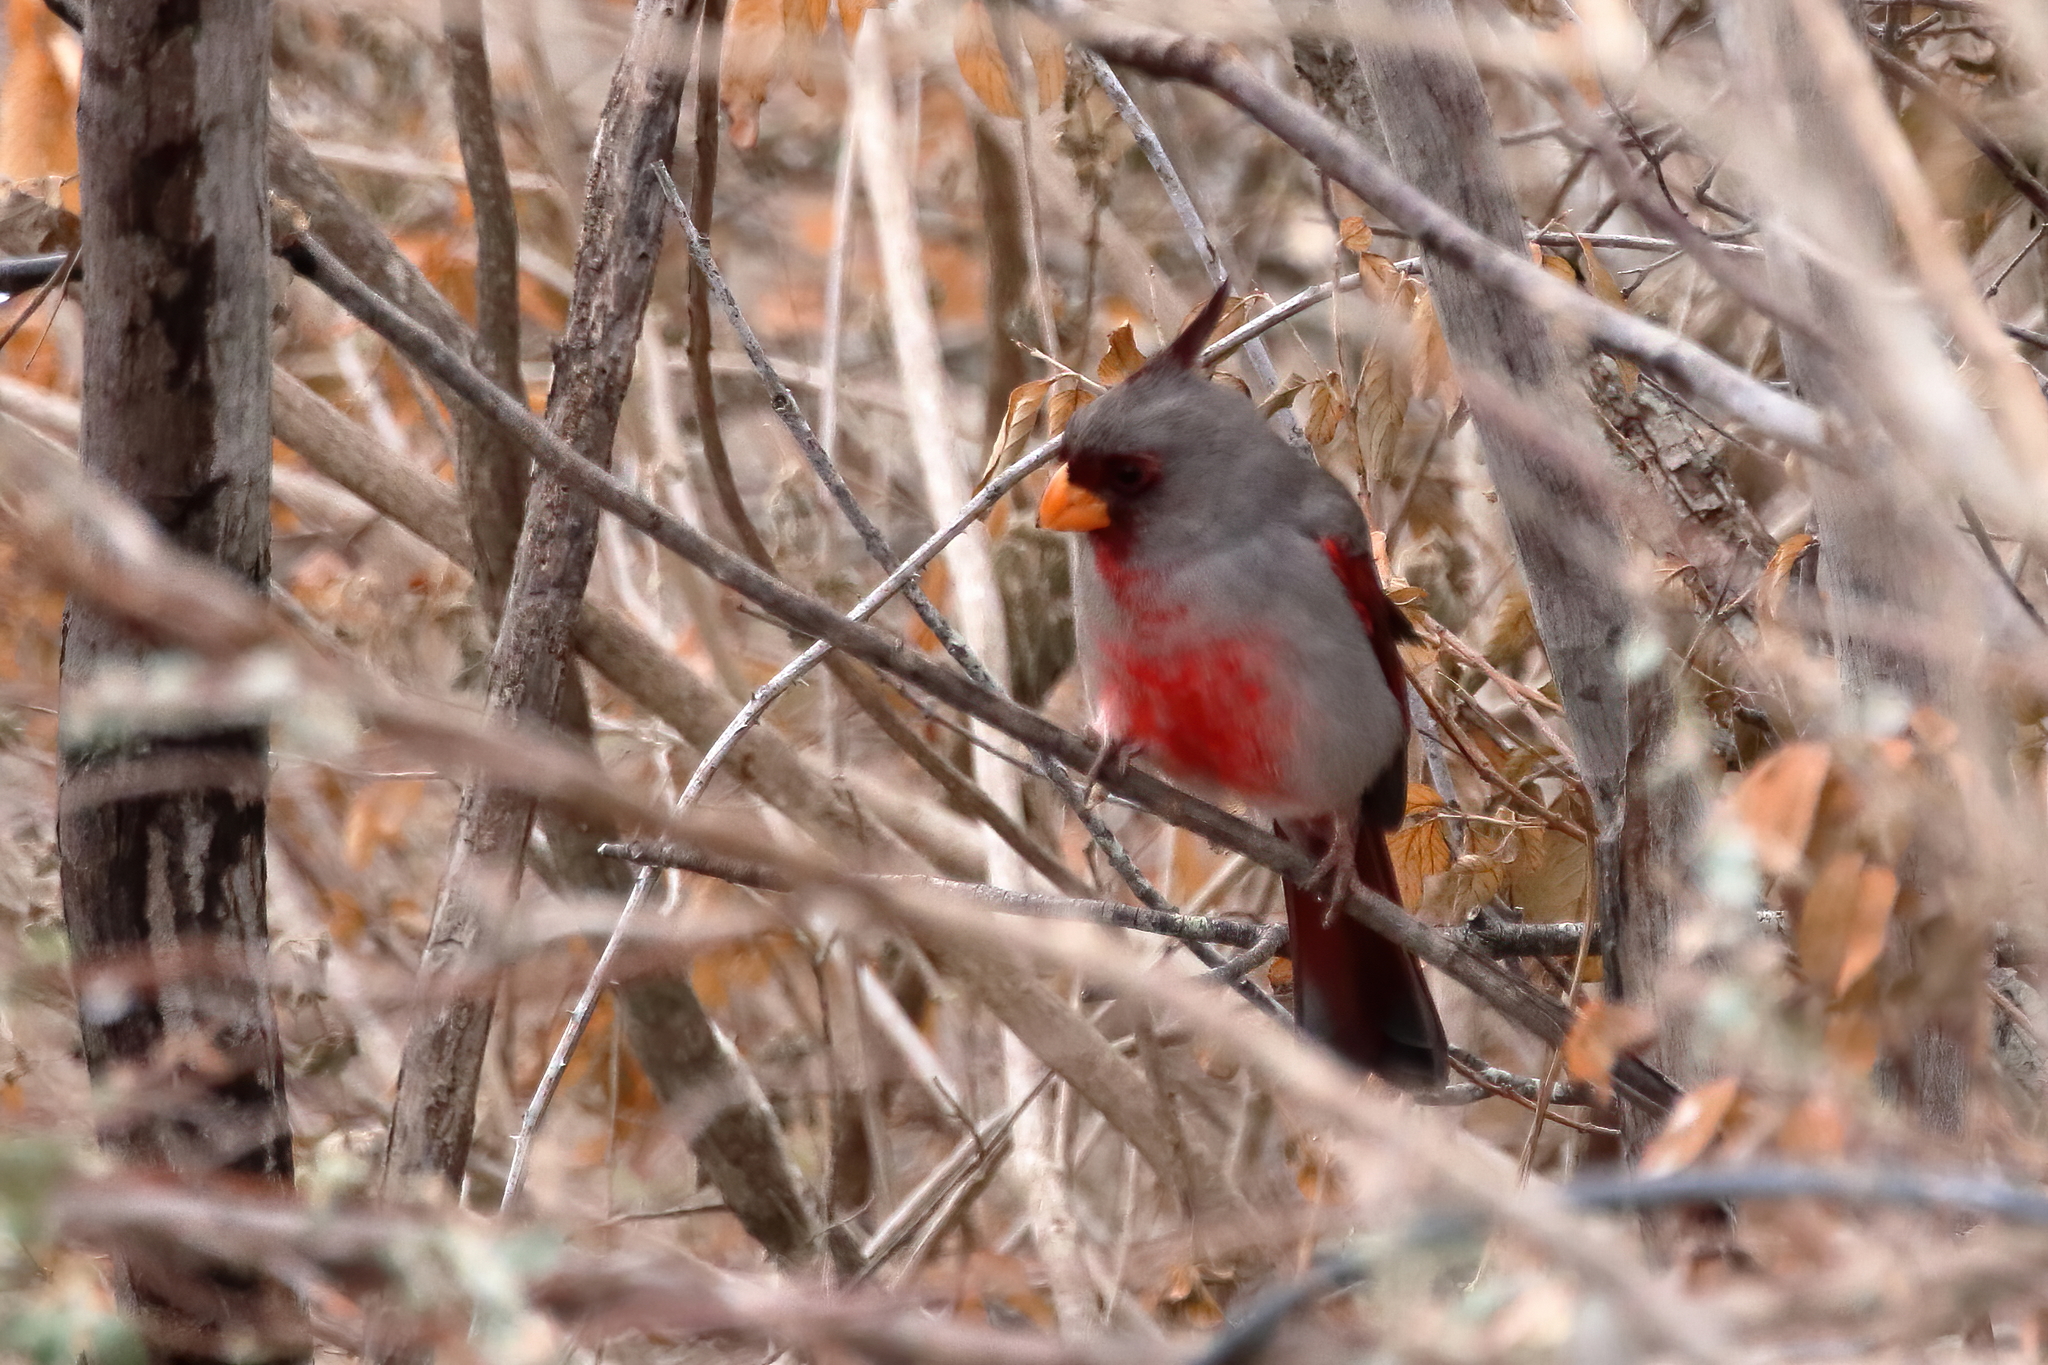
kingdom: Animalia
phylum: Chordata
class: Aves
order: Passeriformes
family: Cardinalidae
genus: Cardinalis
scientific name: Cardinalis sinuatus
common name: Pyrrhuloxia
